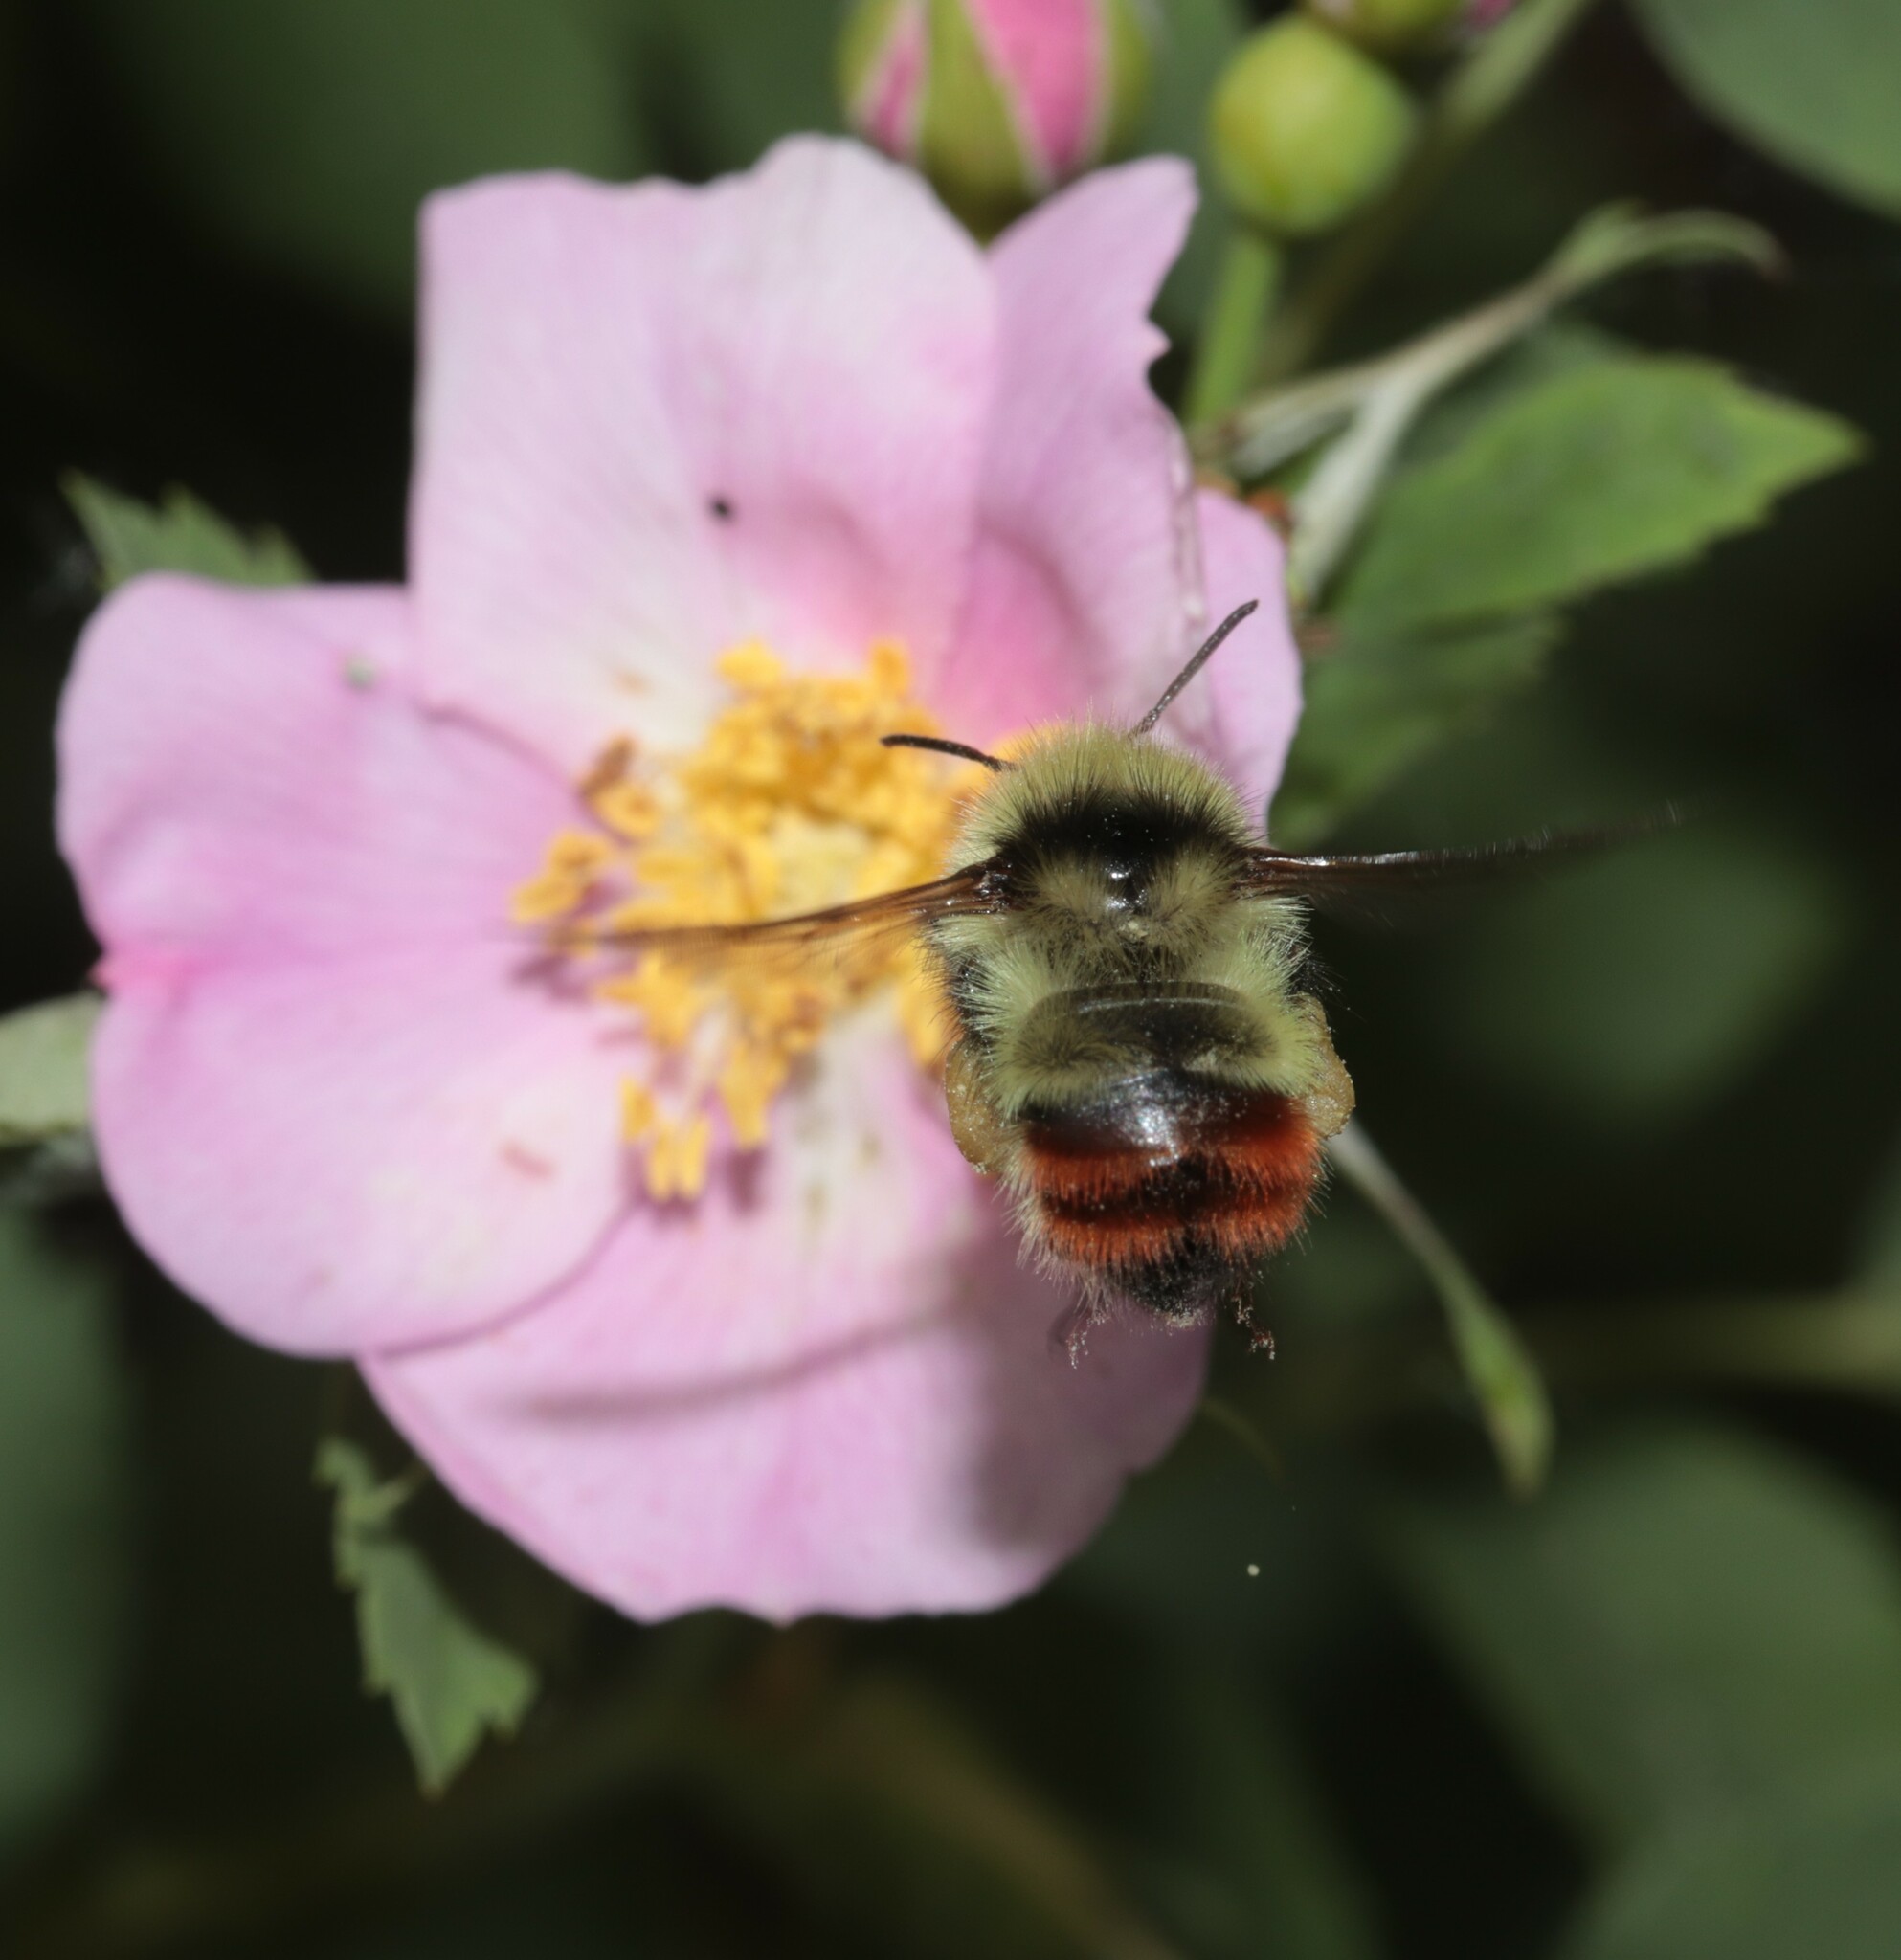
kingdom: Animalia
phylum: Arthropoda
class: Insecta
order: Hymenoptera
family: Apidae
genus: Bombus
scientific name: Bombus flavifrons
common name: Yellow head bumble bee
